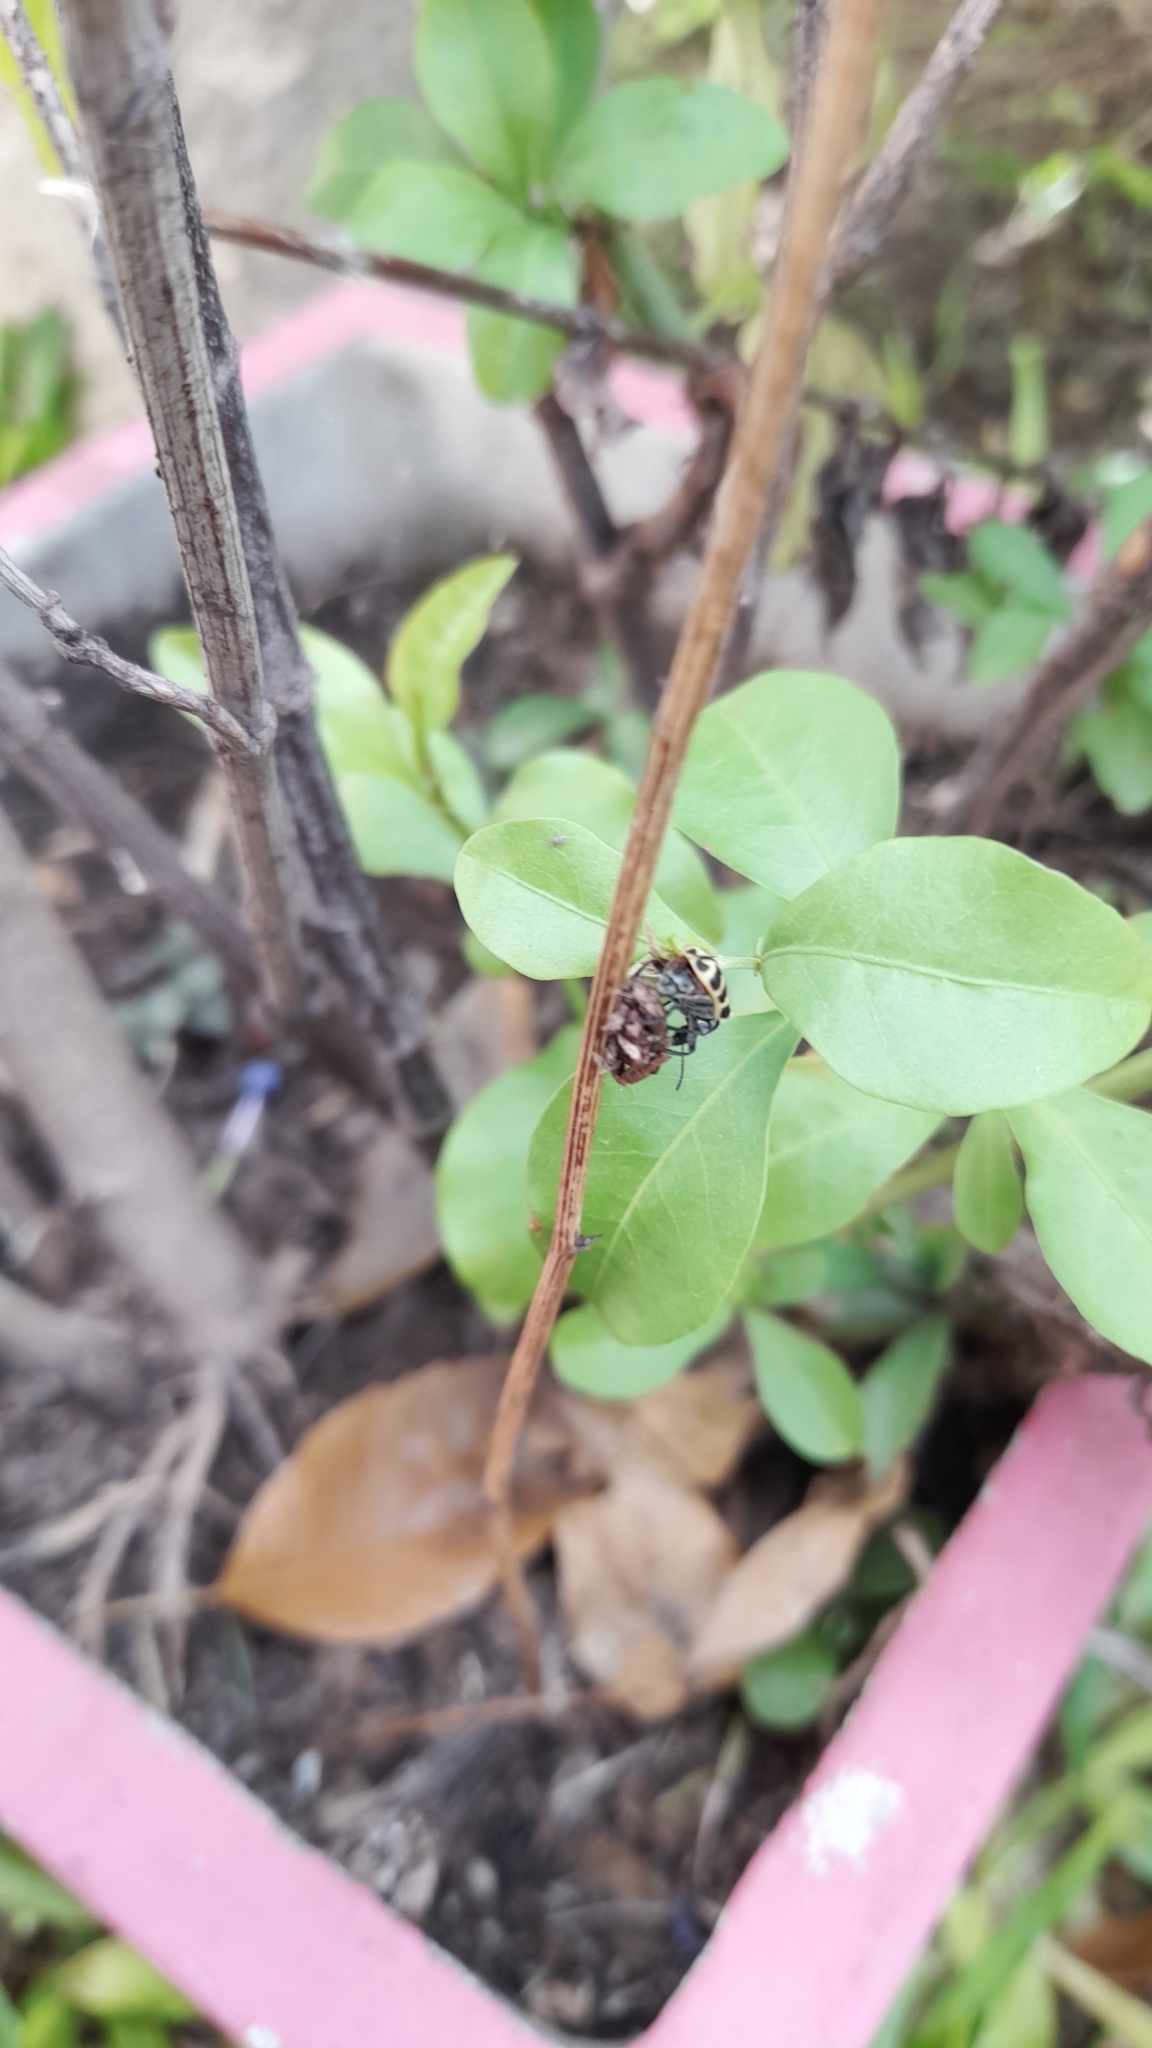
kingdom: Animalia
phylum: Arthropoda
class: Insecta
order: Coleoptera
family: Melyridae
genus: Astylus
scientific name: Astylus atromaculatus
